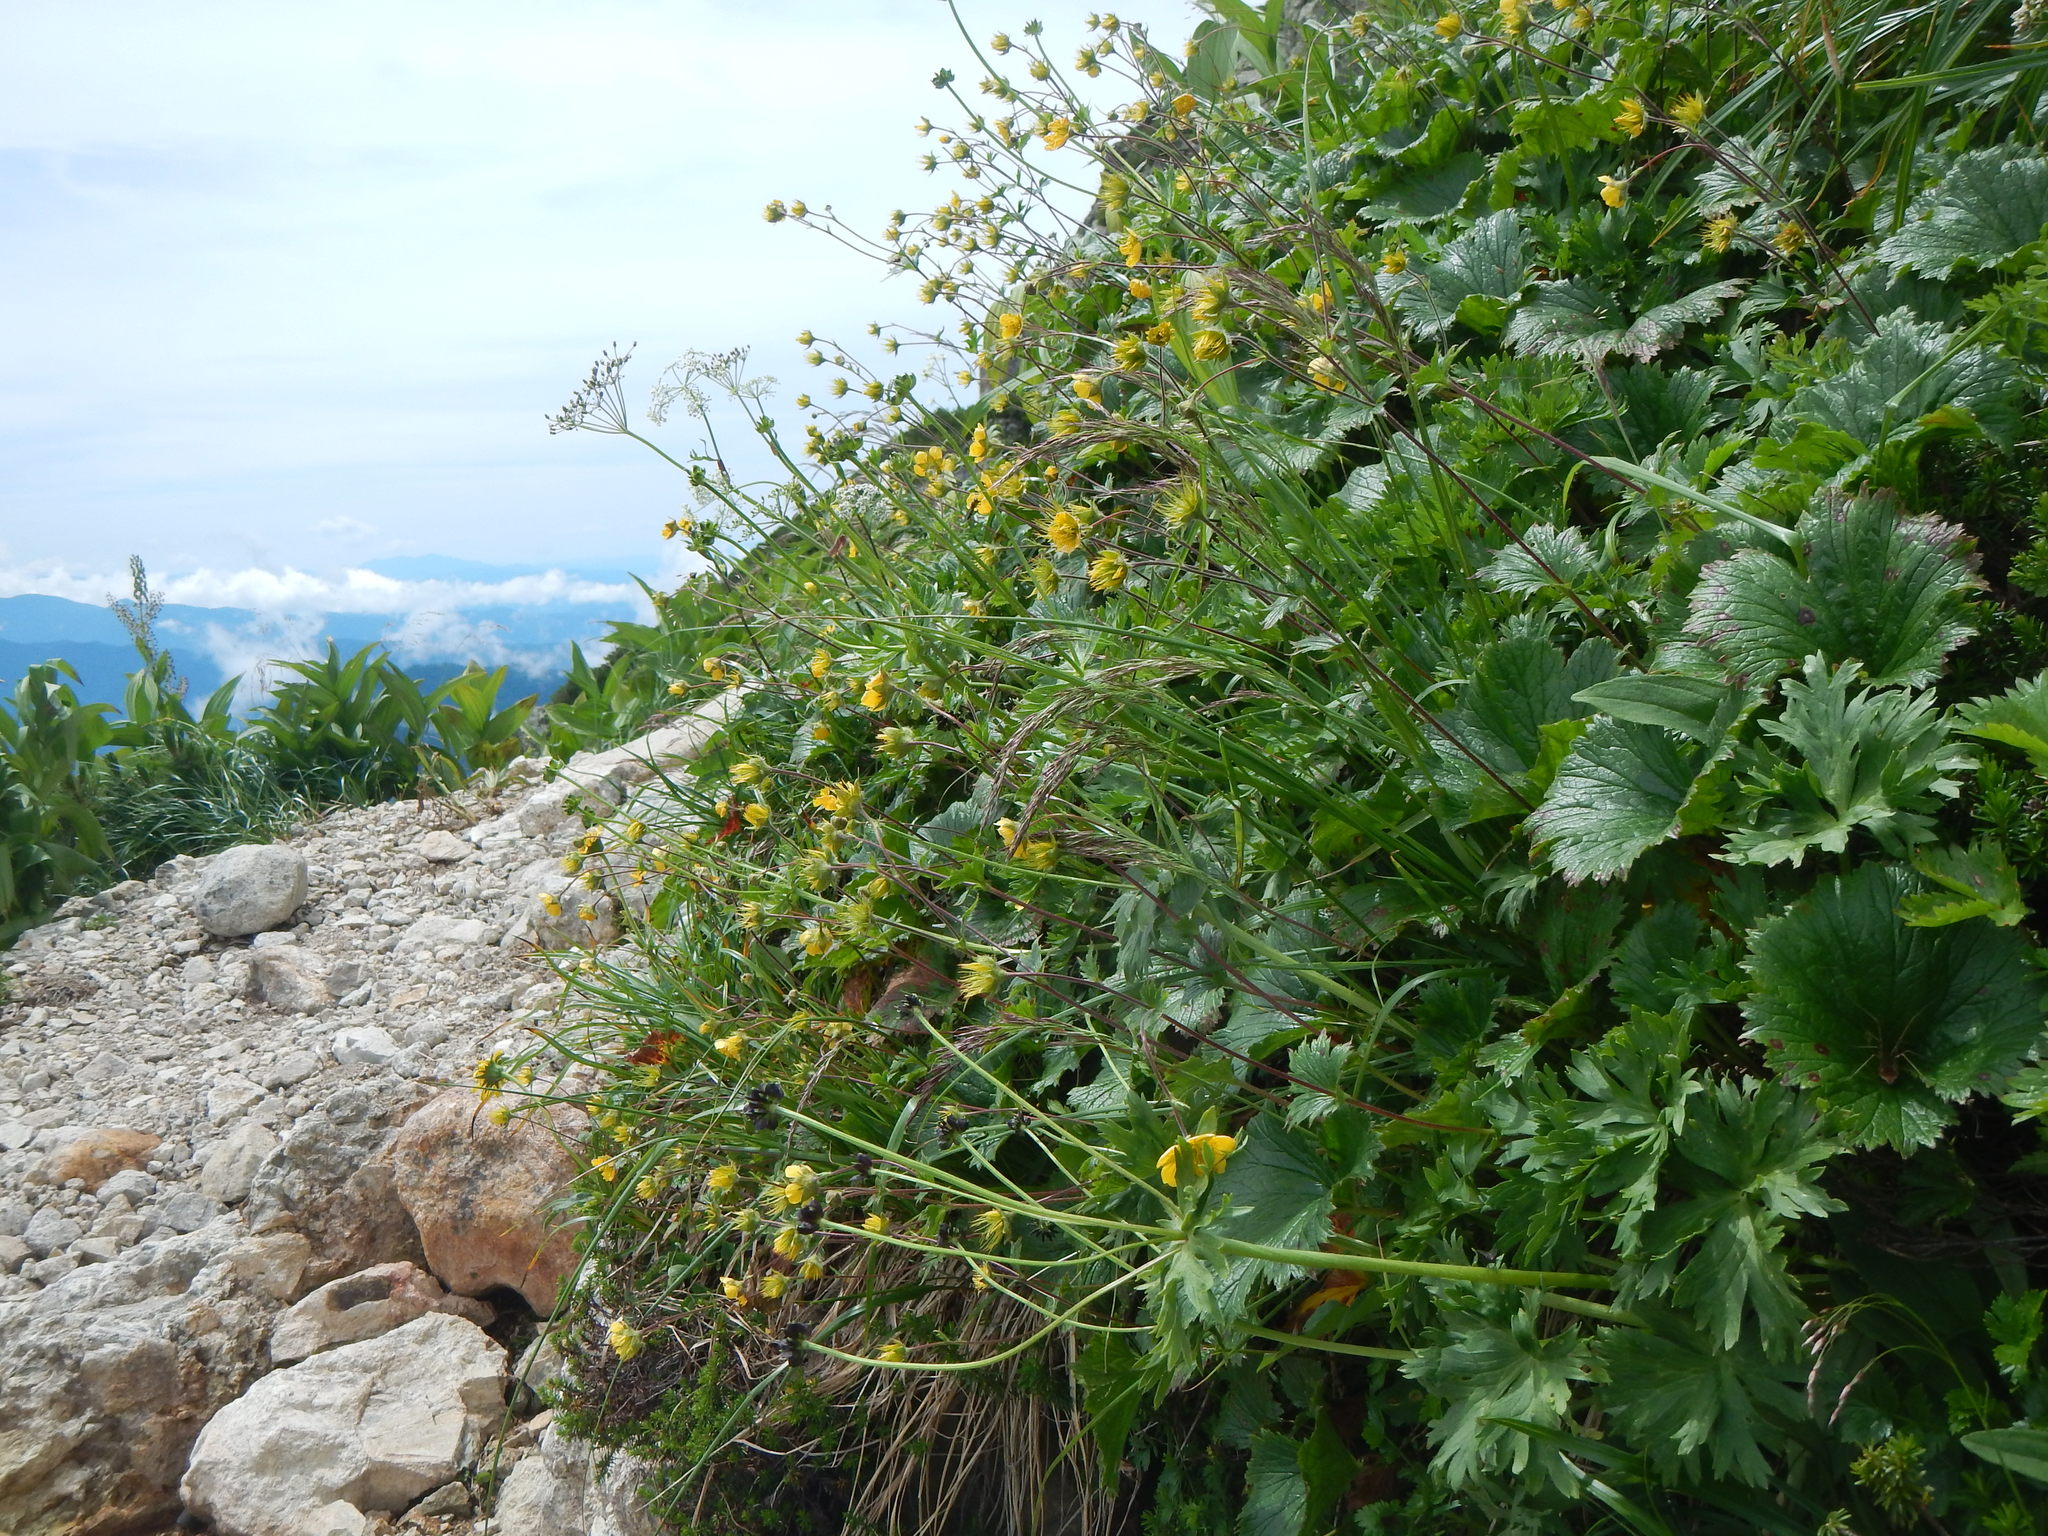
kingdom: Plantae
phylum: Tracheophyta
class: Magnoliopsida
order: Rosales
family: Rosaceae
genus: Geum
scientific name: Geum calthifolium
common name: Caltha-leaved avens
